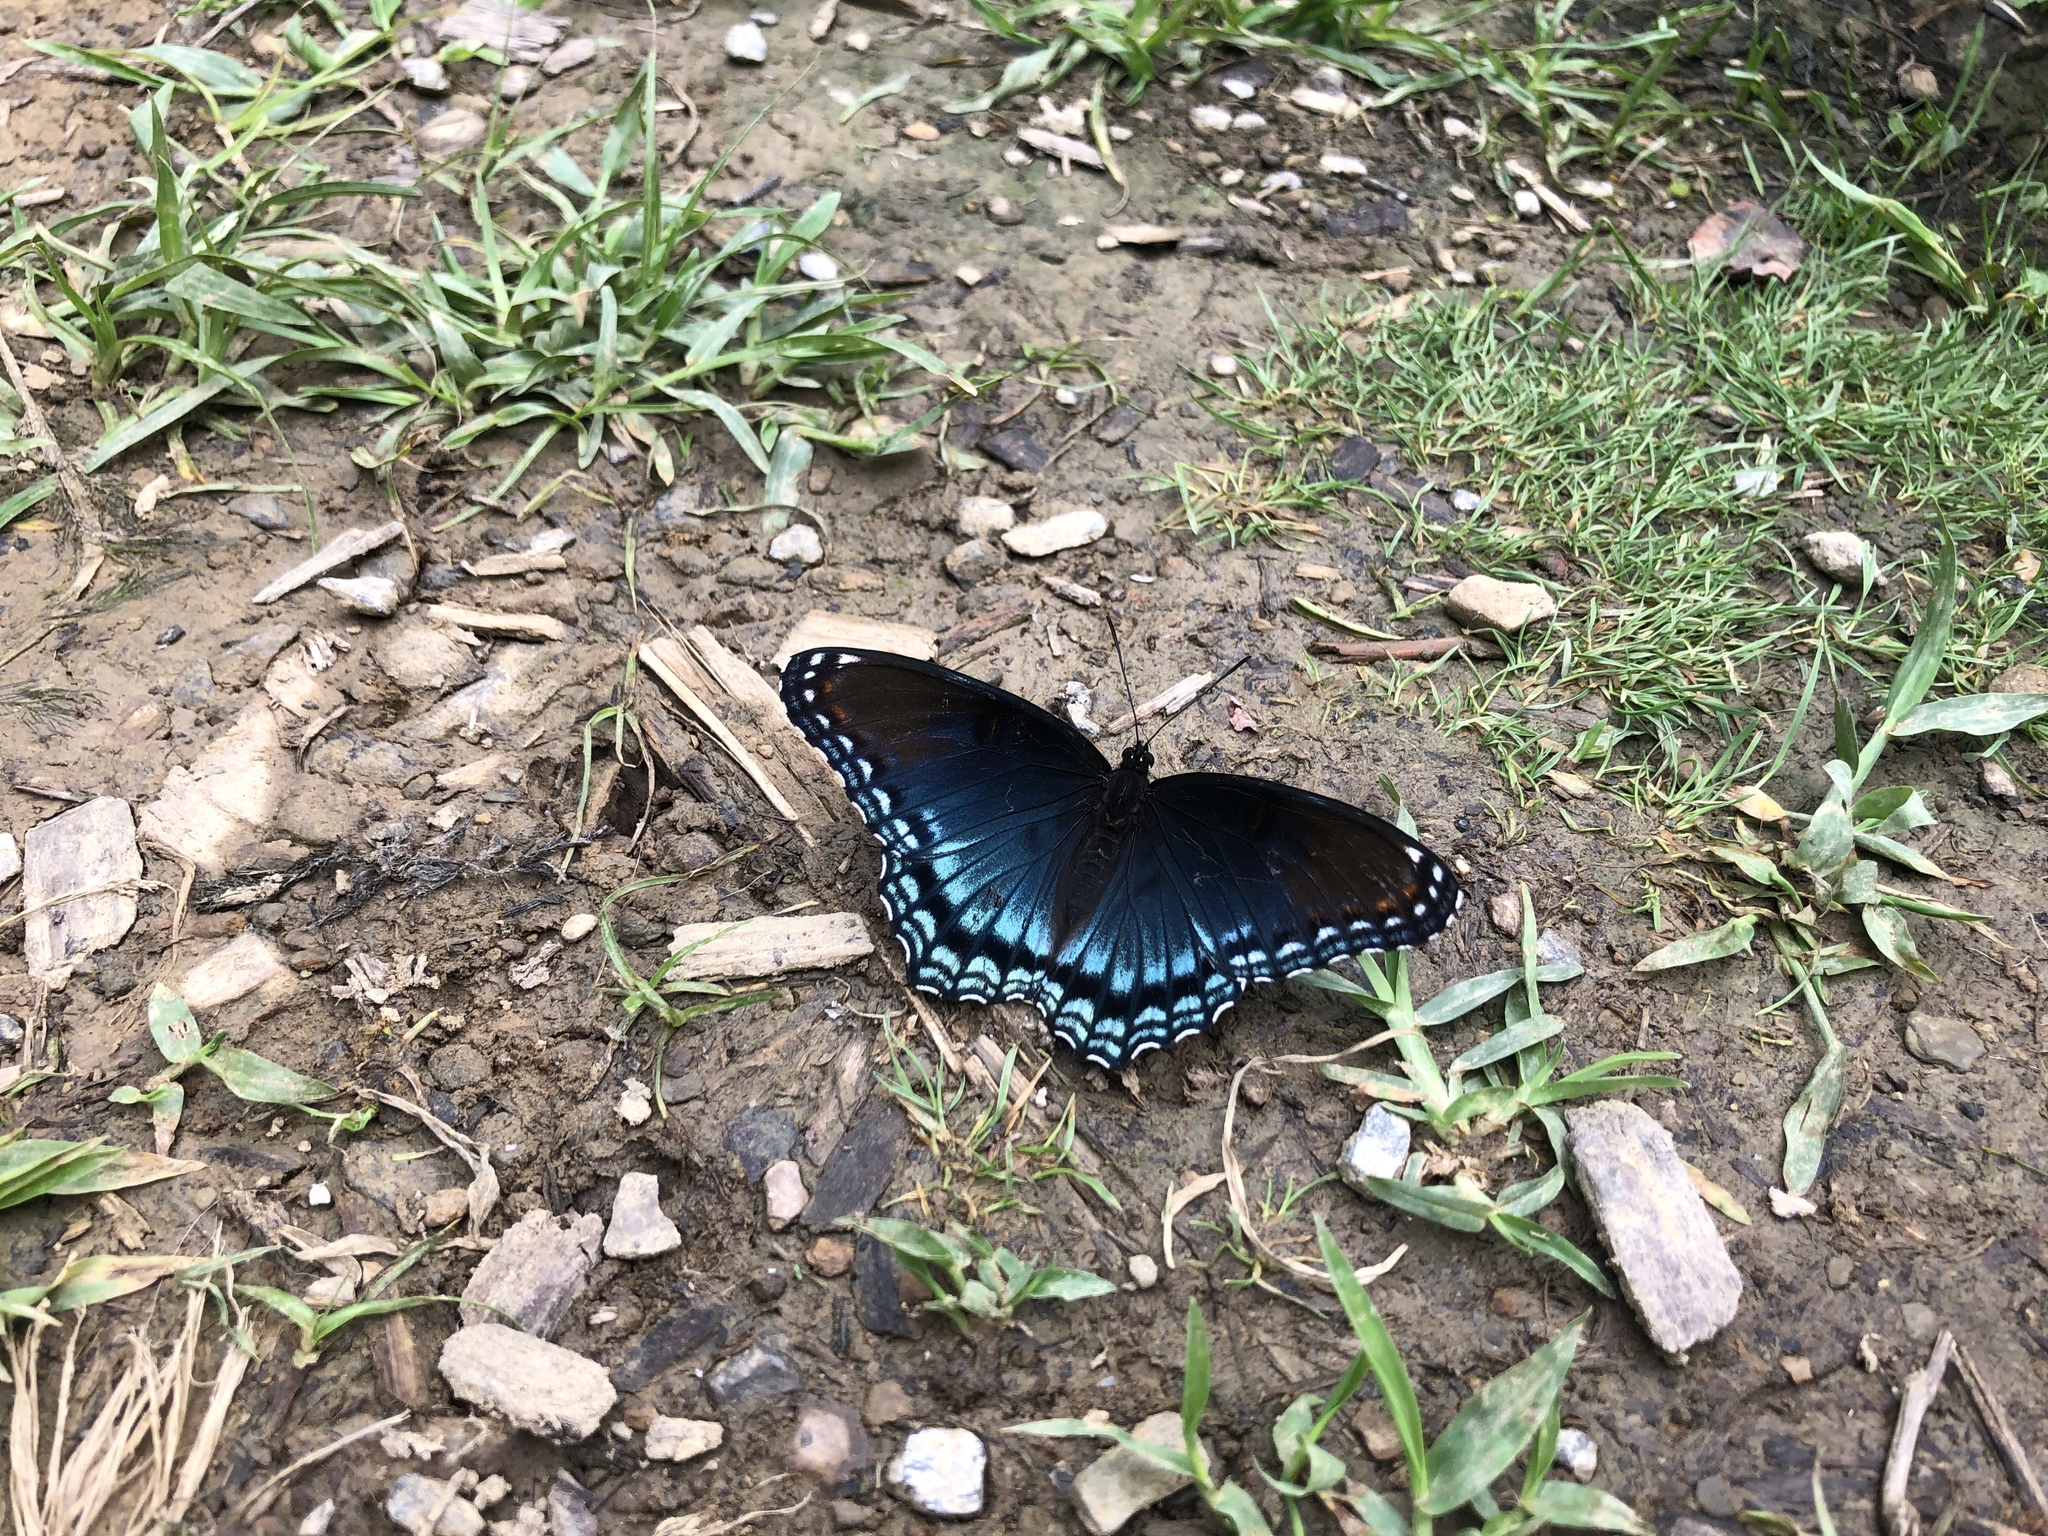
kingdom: Animalia
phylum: Arthropoda
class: Insecta
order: Lepidoptera
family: Nymphalidae
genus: Limenitis
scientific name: Limenitis arthemis
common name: Red-spotted admiral
